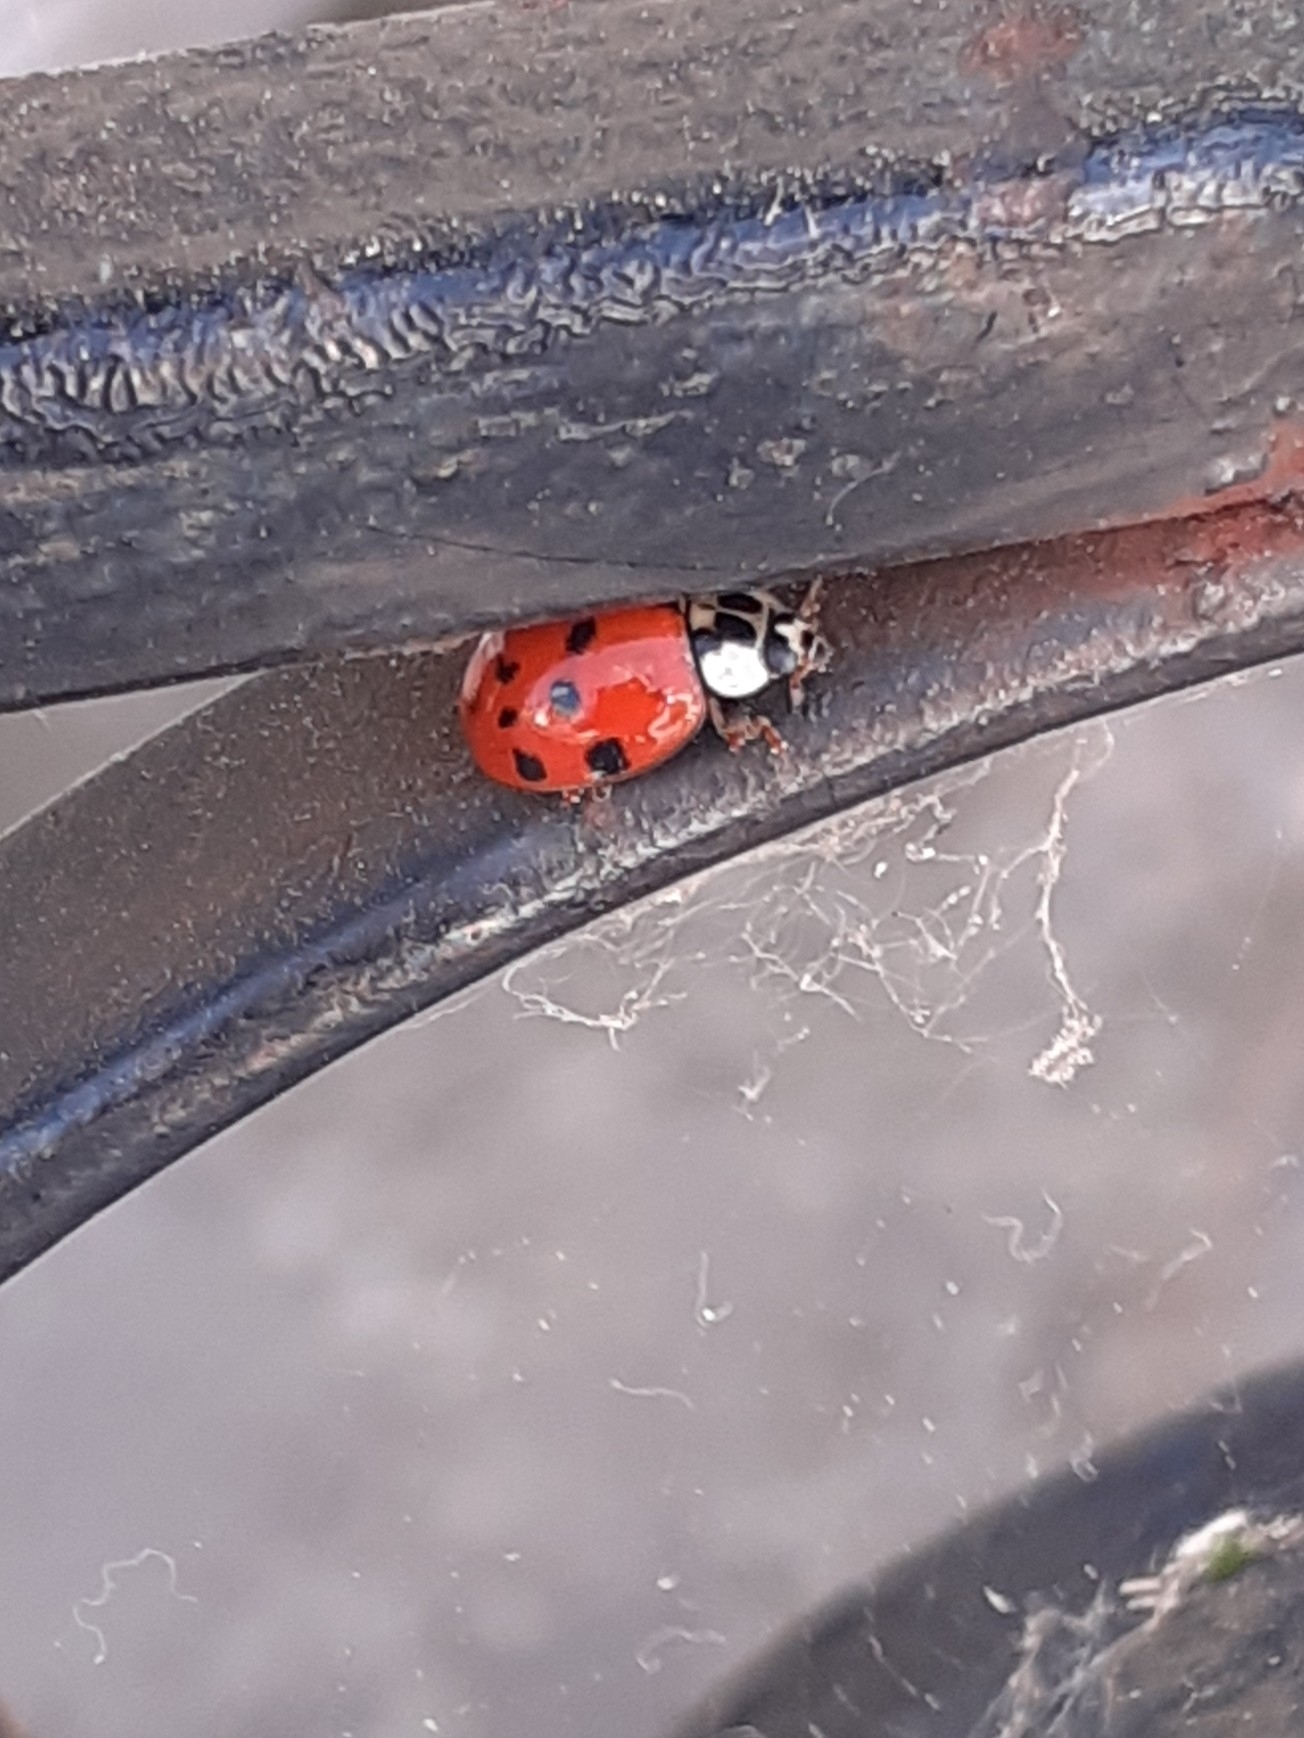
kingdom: Animalia
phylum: Arthropoda
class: Insecta
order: Coleoptera
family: Coccinellidae
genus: Harmonia
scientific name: Harmonia axyridis
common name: Harlequin ladybird
